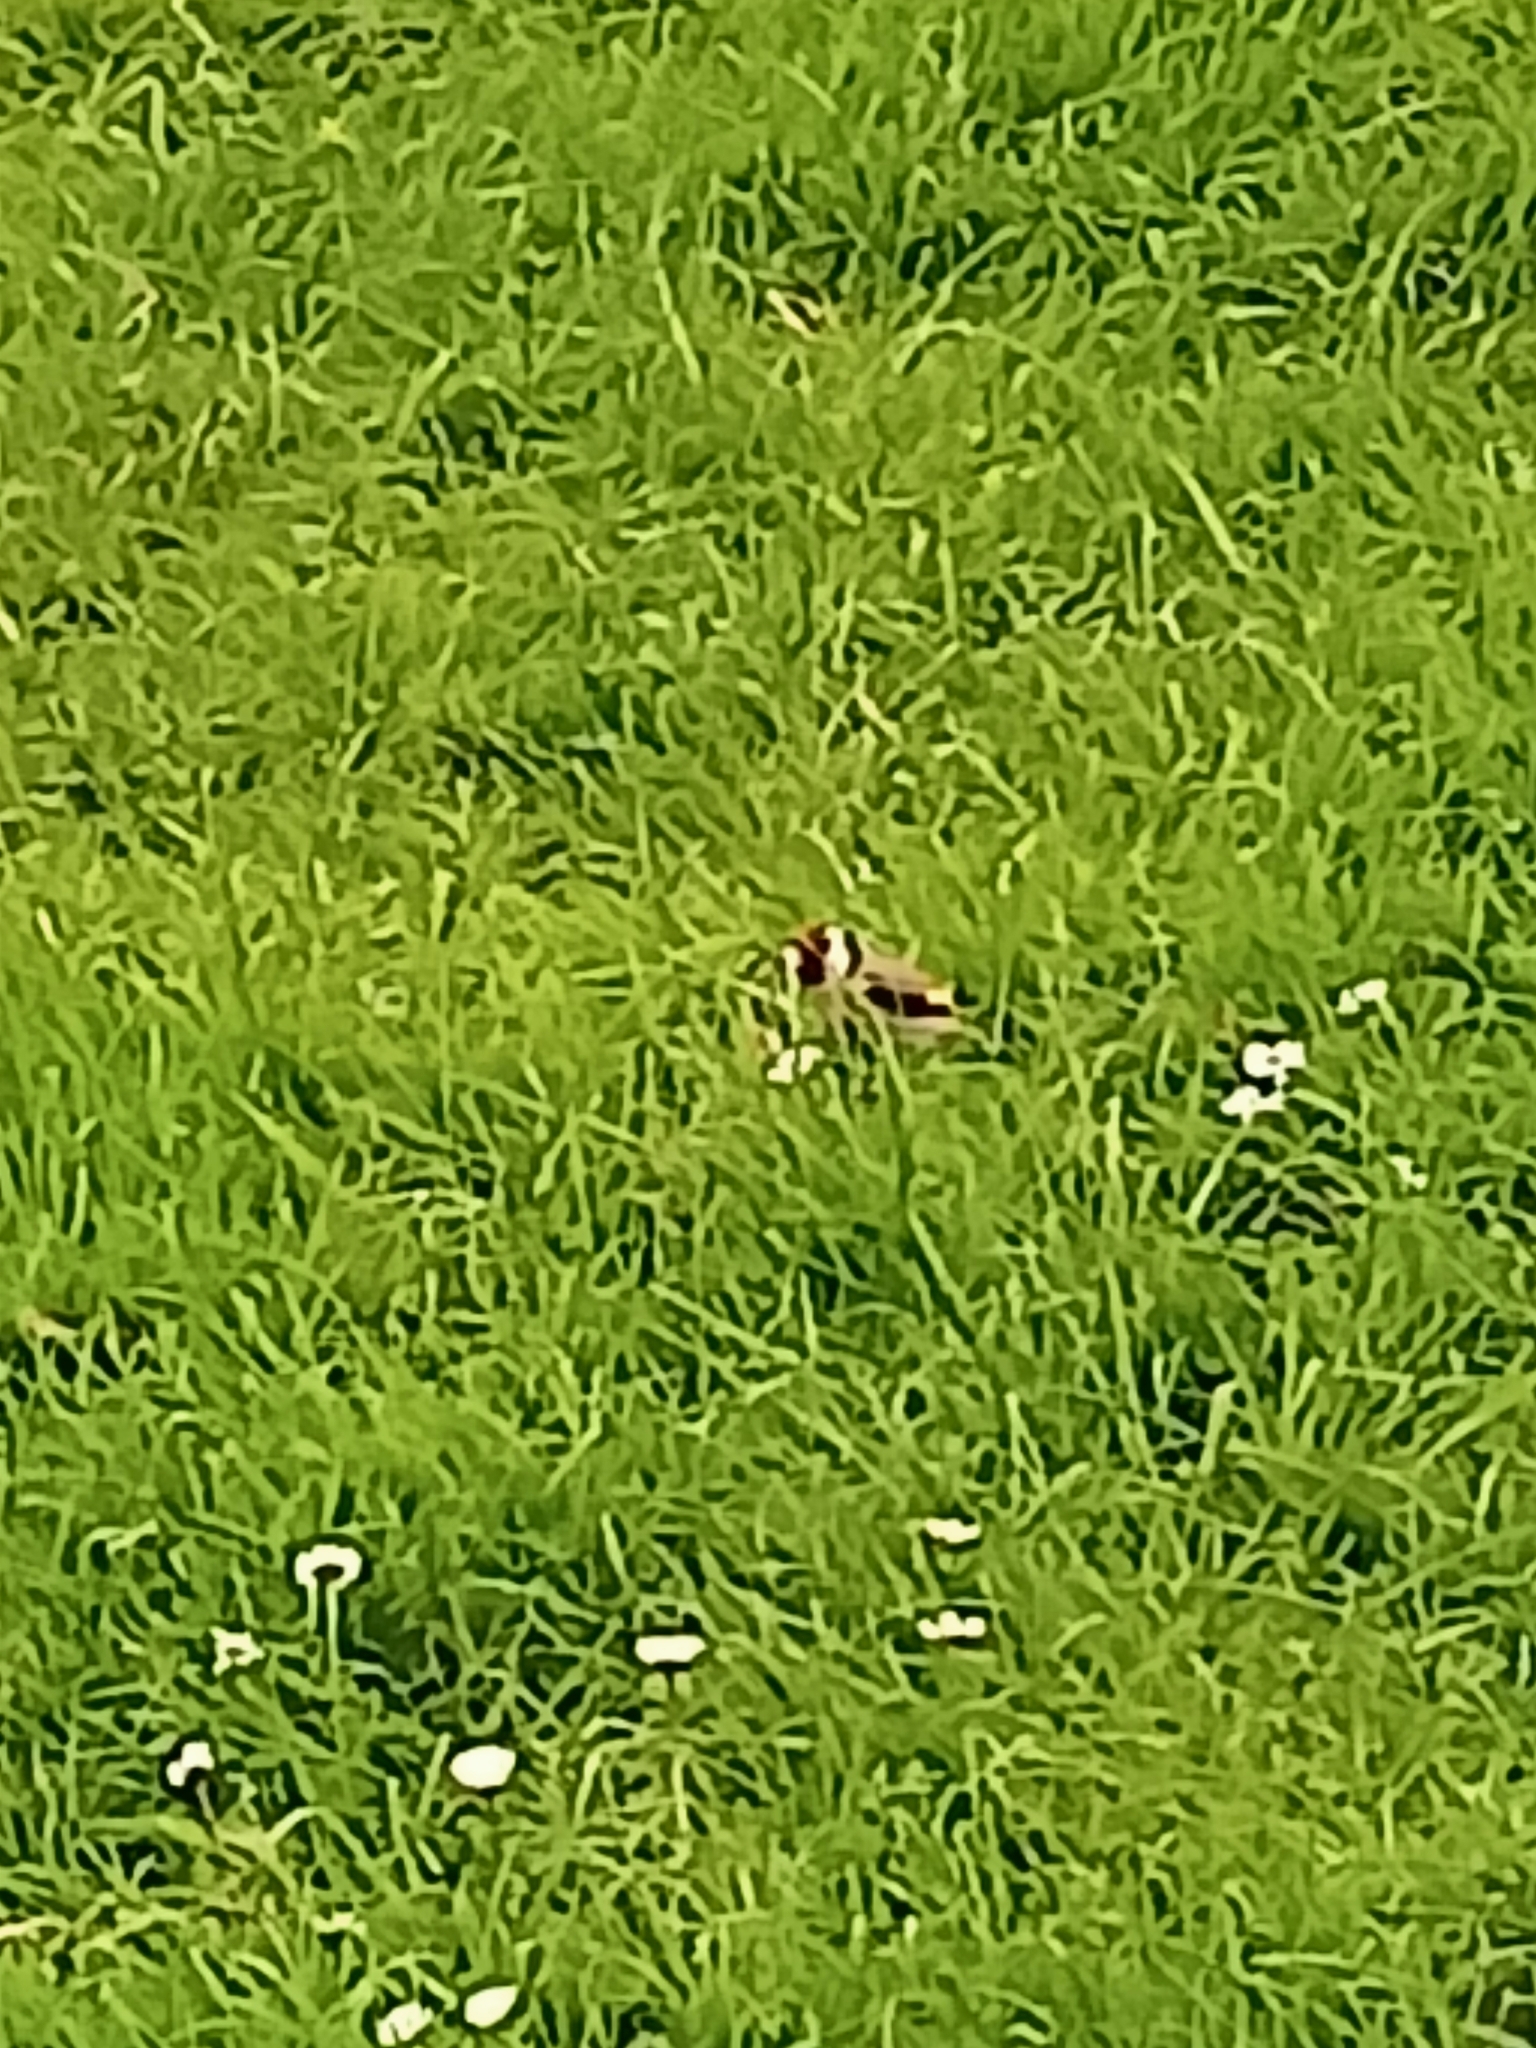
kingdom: Animalia
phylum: Chordata
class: Aves
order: Passeriformes
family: Fringillidae
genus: Carduelis
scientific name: Carduelis carduelis
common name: European goldfinch
